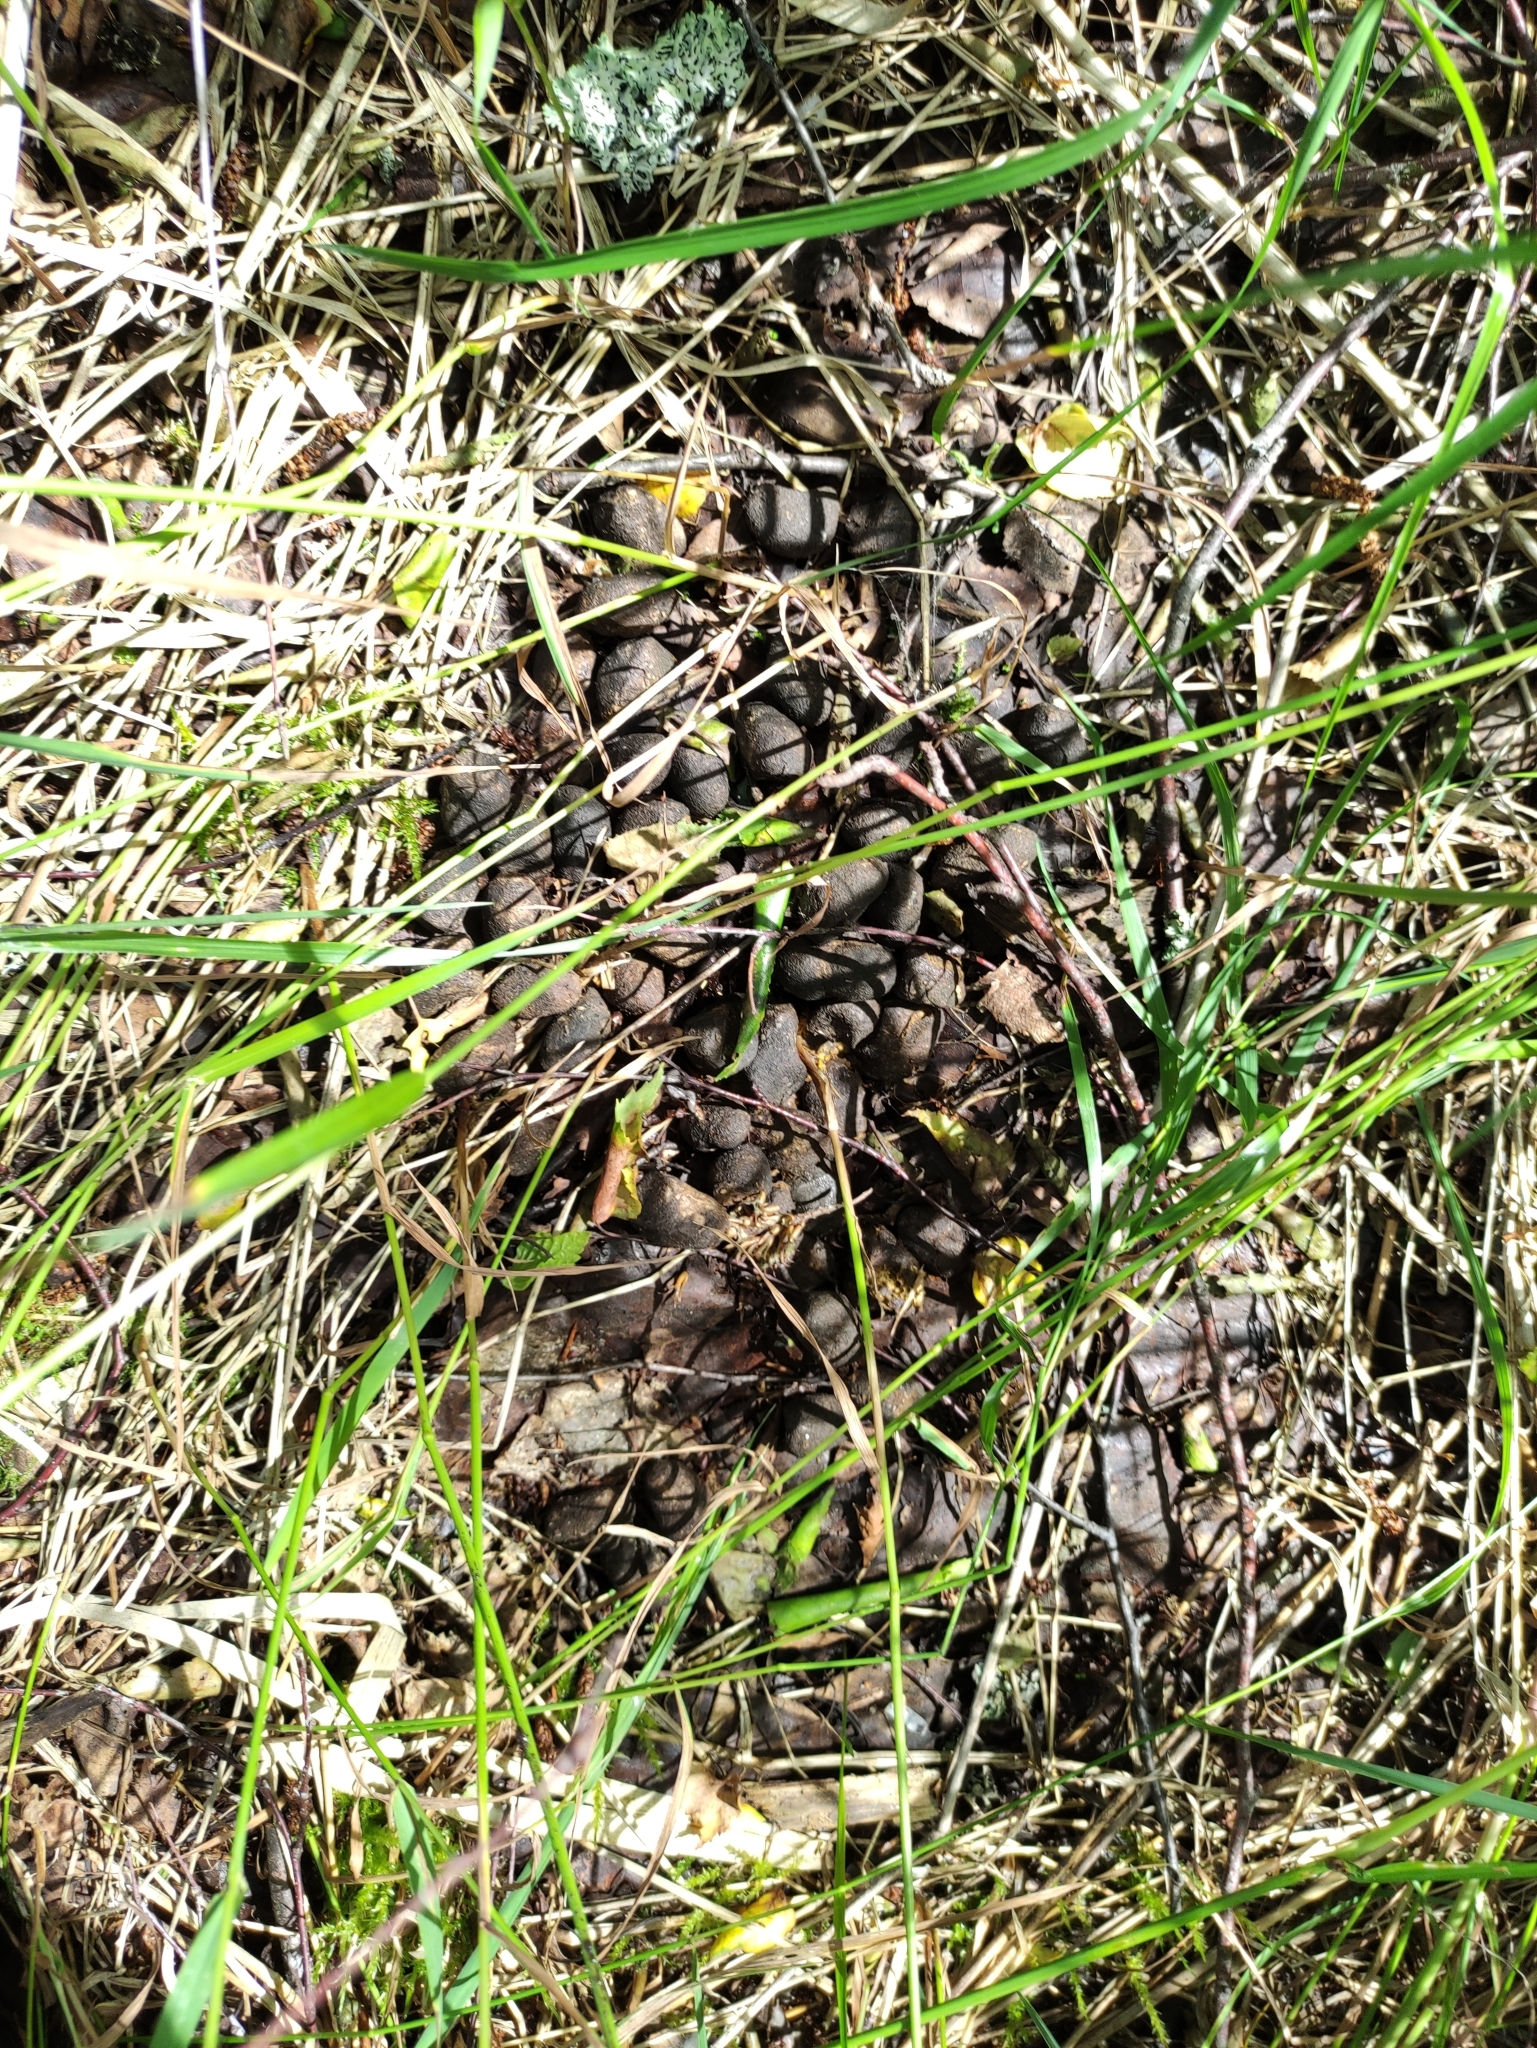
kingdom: Animalia
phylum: Chordata
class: Mammalia
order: Artiodactyla
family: Cervidae
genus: Alces
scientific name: Alces alces
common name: Moose
